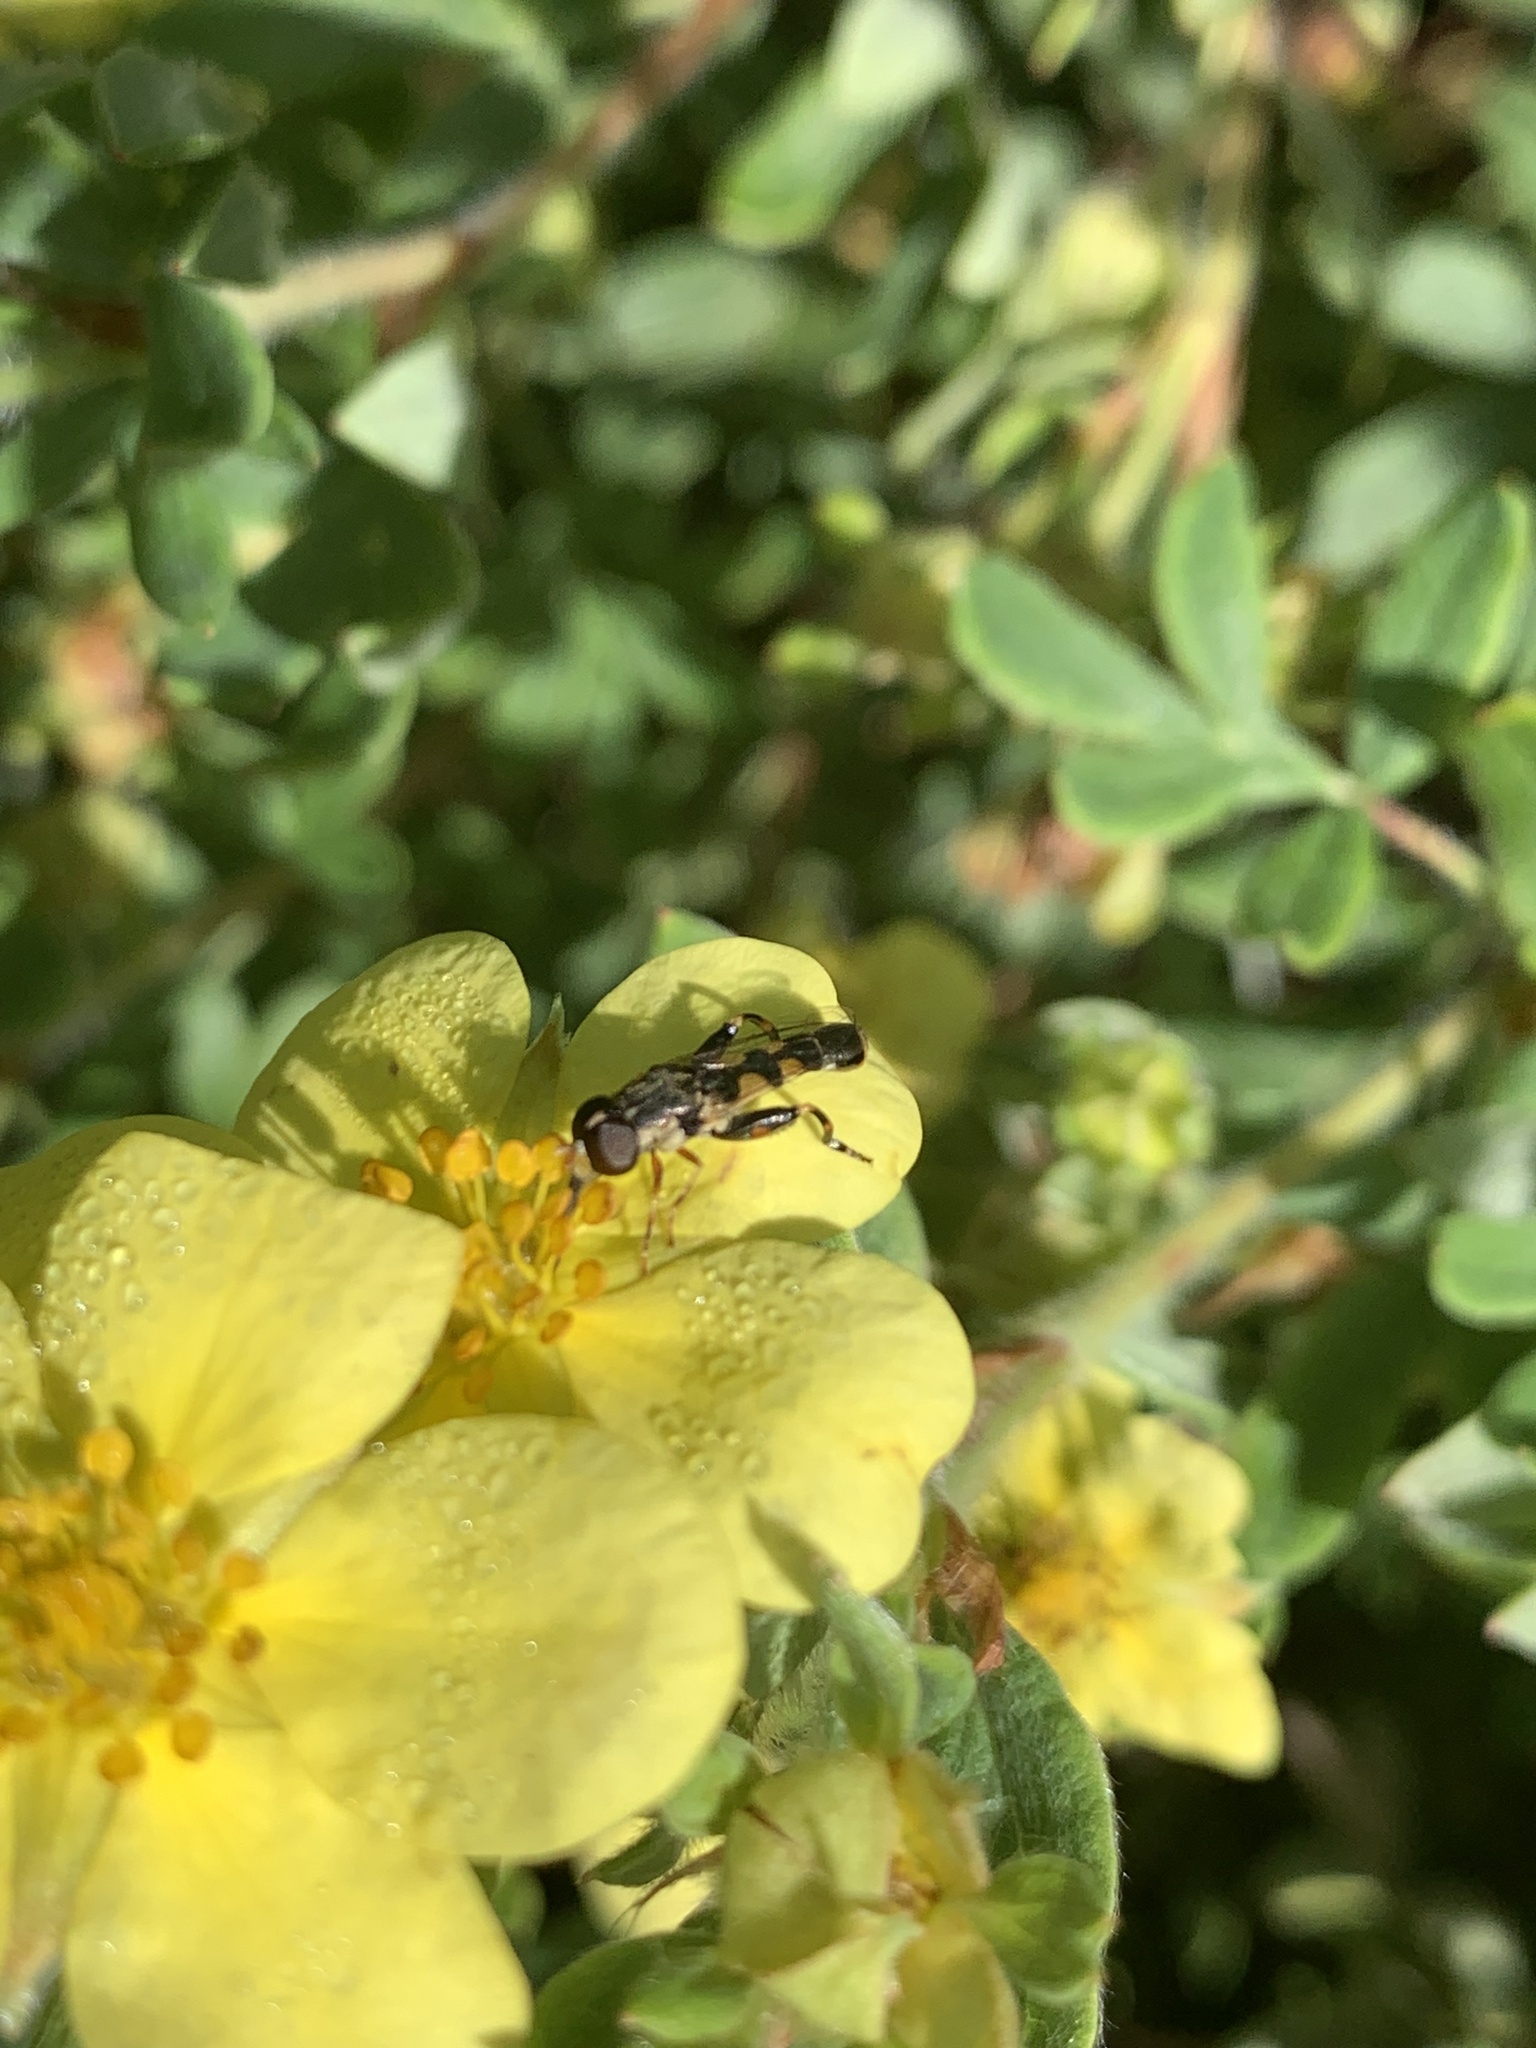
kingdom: Animalia
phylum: Arthropoda
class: Insecta
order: Diptera
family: Syrphidae
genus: Syritta
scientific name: Syritta pipiens
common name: Hover fly
